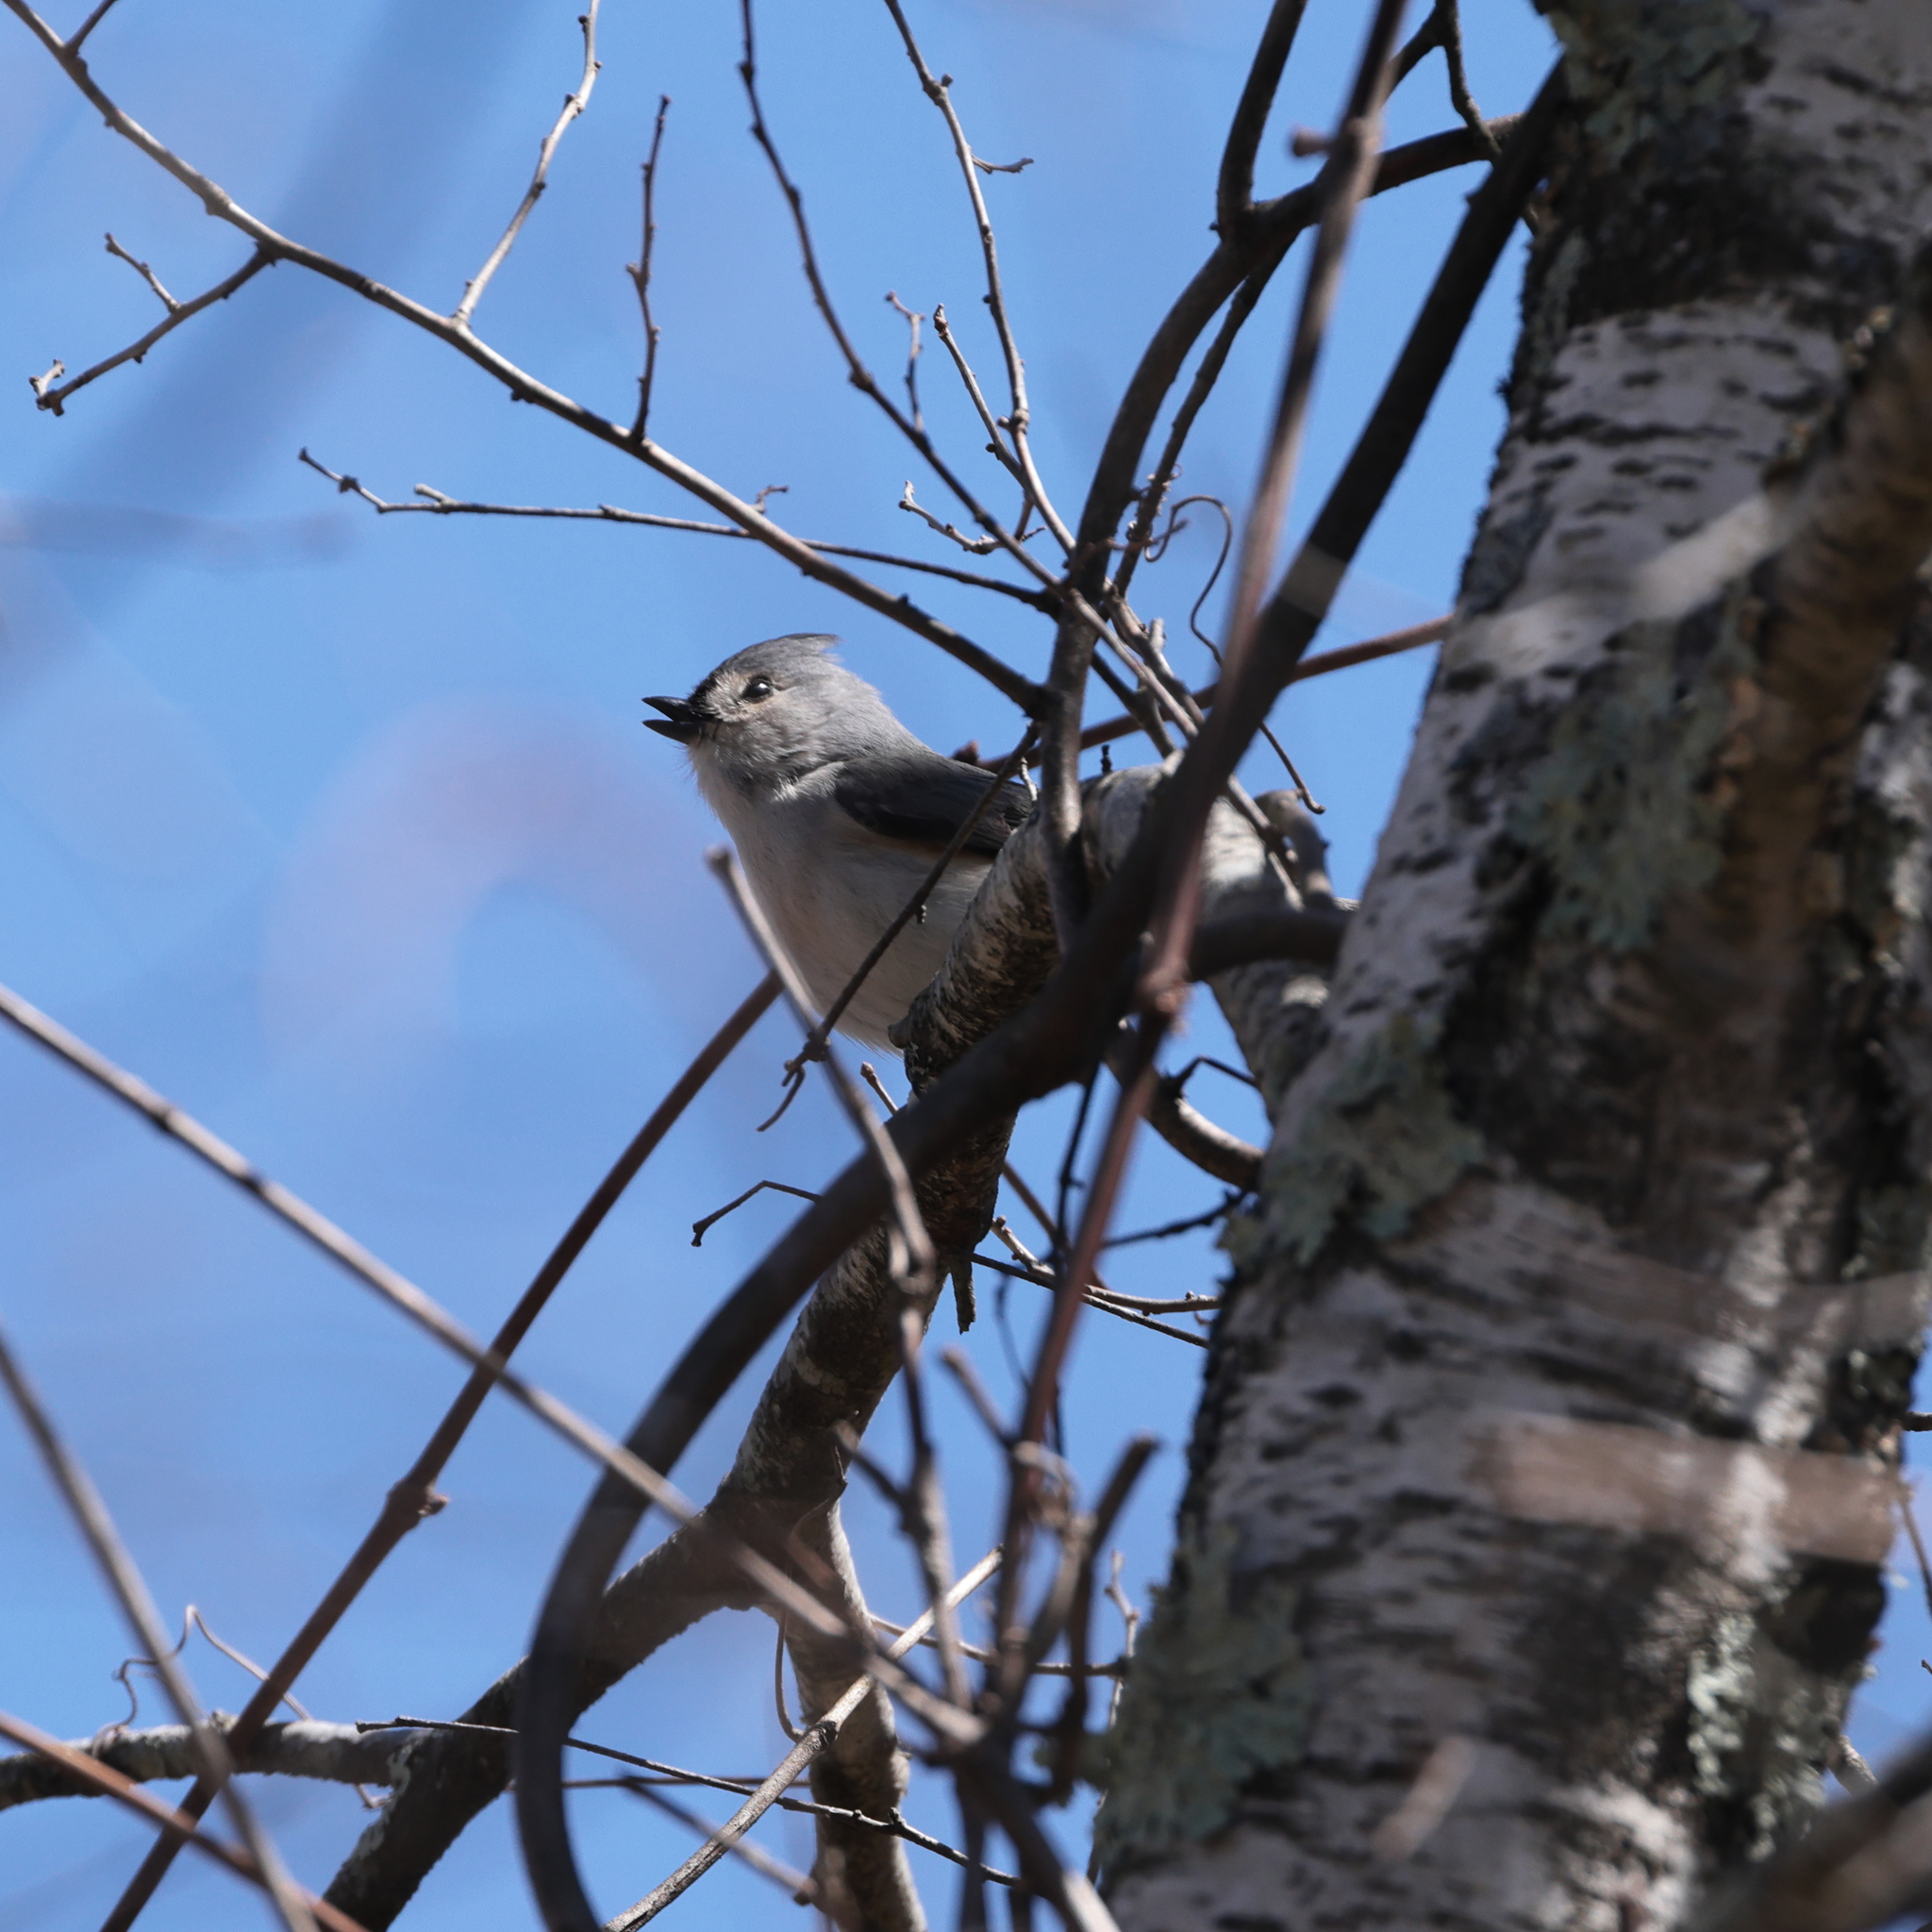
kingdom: Animalia
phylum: Chordata
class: Aves
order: Passeriformes
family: Paridae
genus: Baeolophus
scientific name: Baeolophus bicolor
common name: Tufted titmouse
